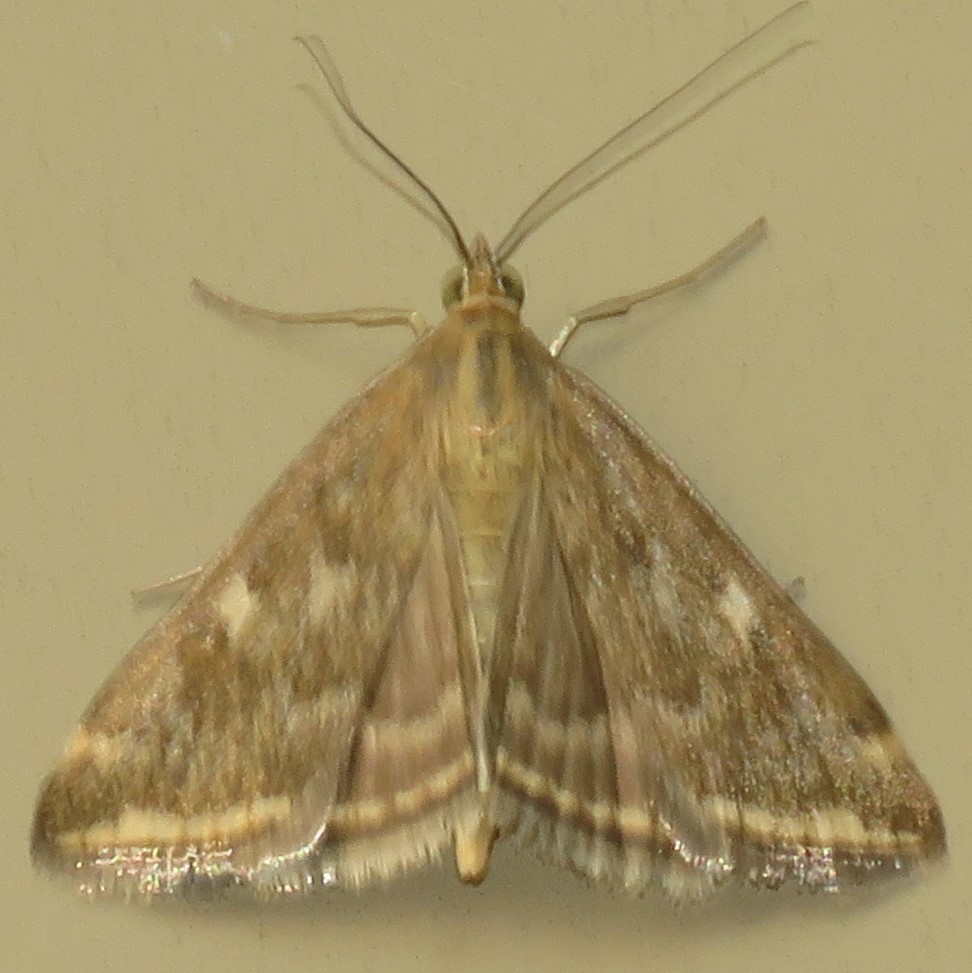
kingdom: Animalia
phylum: Arthropoda
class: Insecta
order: Lepidoptera
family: Crambidae
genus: Loxostege
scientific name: Loxostege
